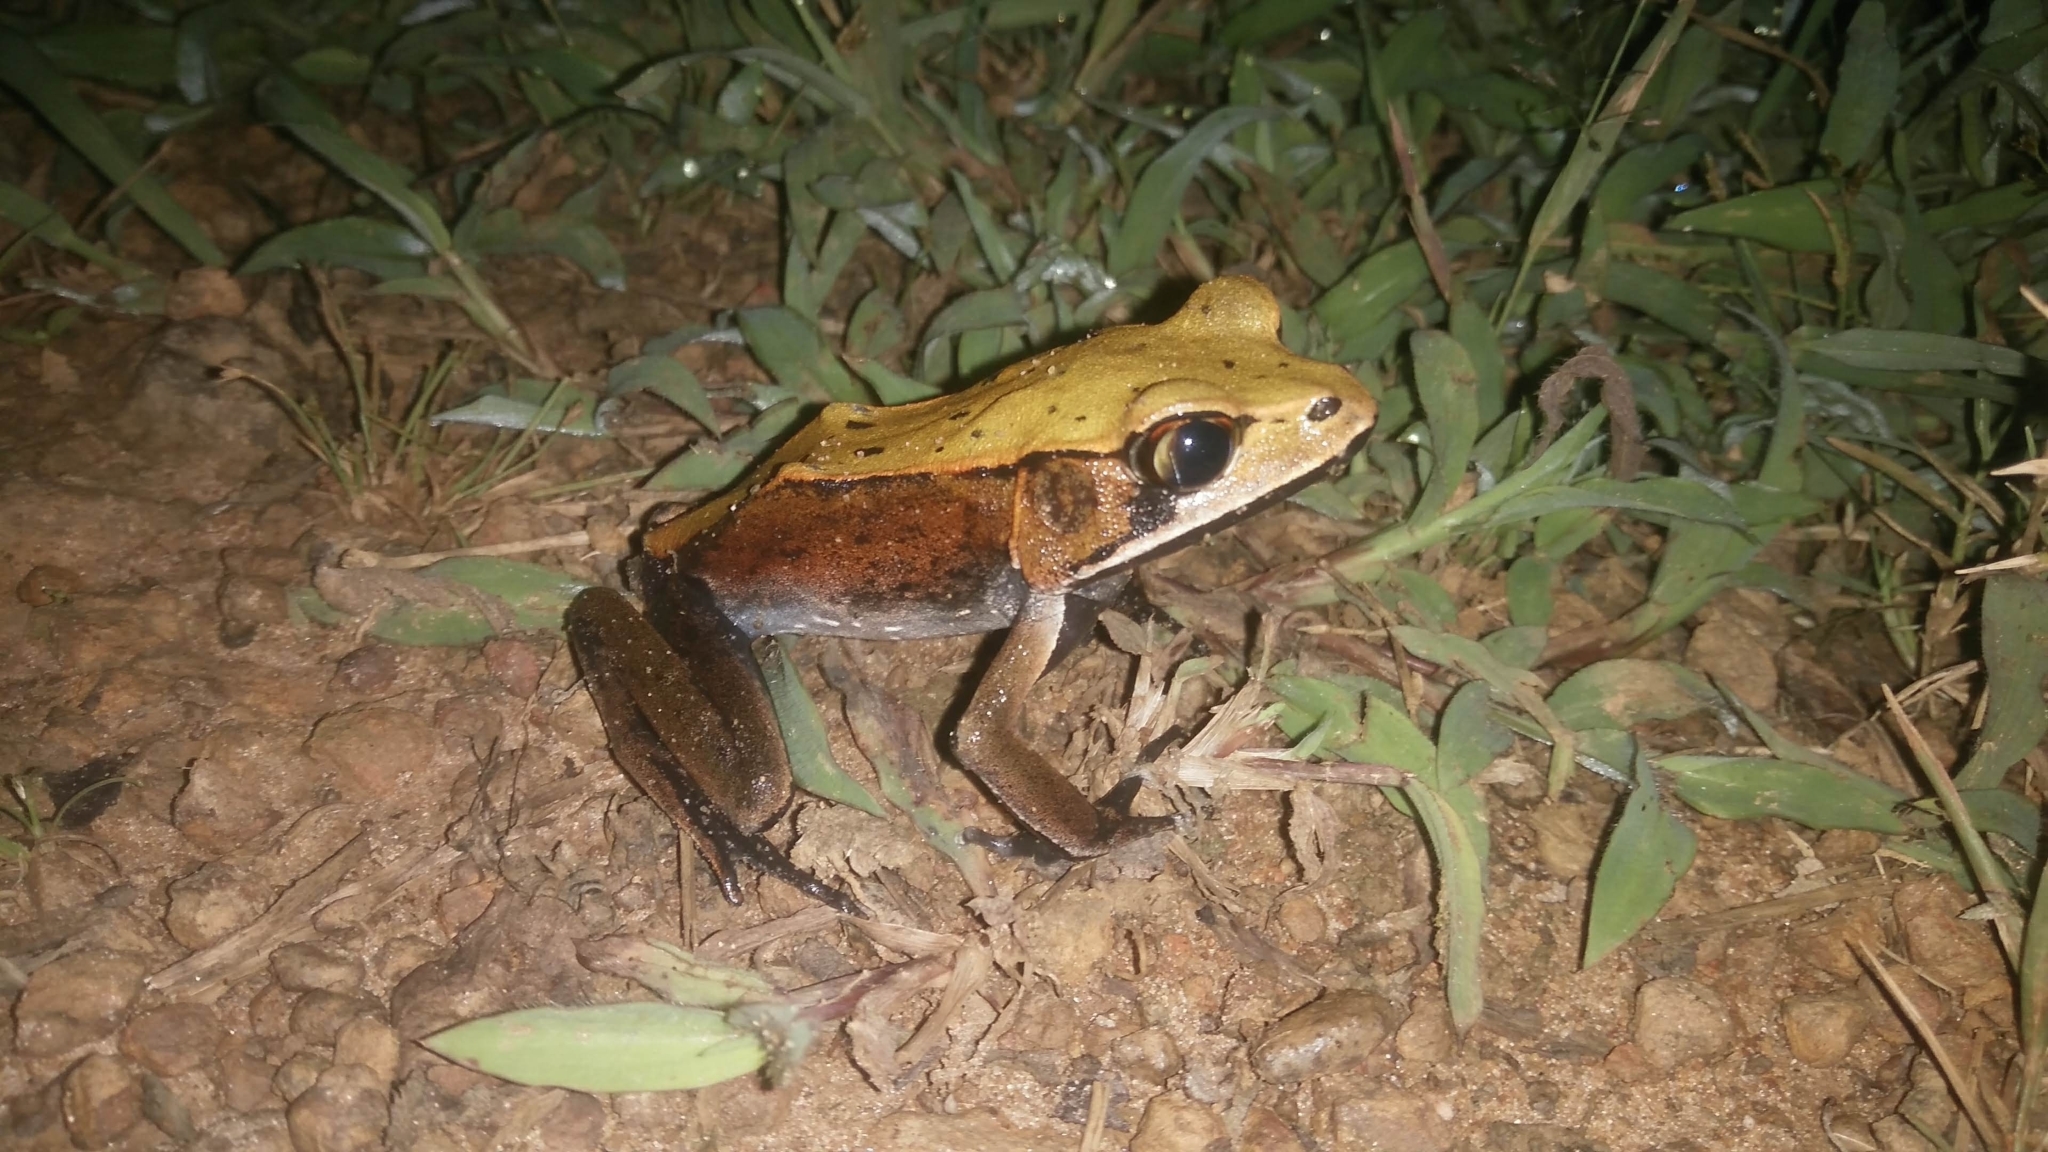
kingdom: Animalia
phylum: Chordata
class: Amphibia
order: Anura
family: Ranidae
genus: Clinotarsus
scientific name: Clinotarsus curtipes
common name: Bicoloured frog
